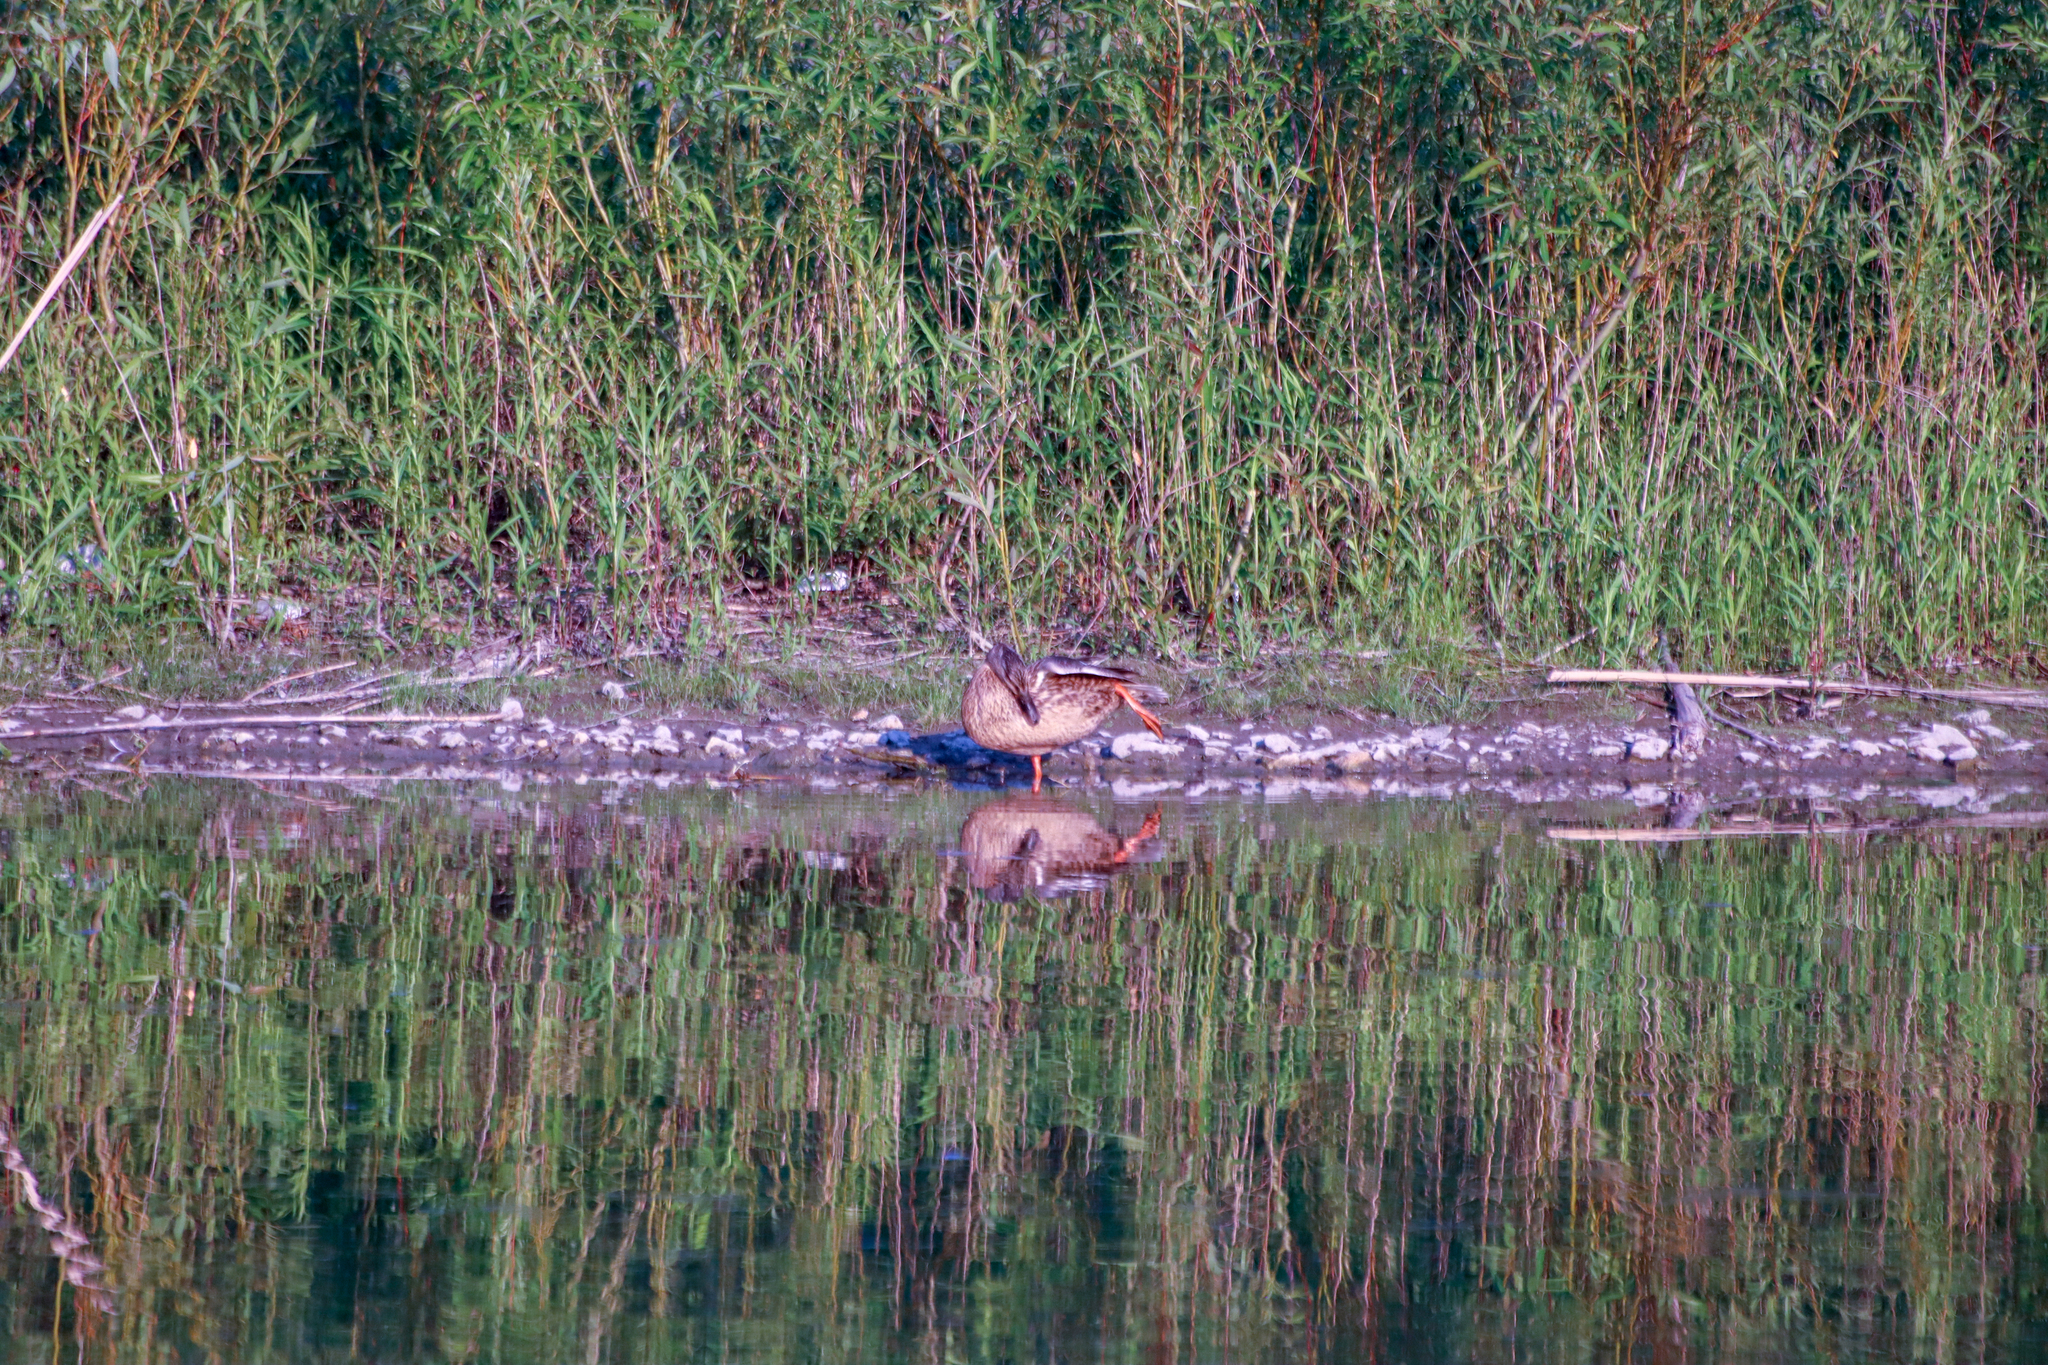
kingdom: Animalia
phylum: Chordata
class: Aves
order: Anseriformes
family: Anatidae
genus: Anas
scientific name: Anas platyrhynchos
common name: Mallard
